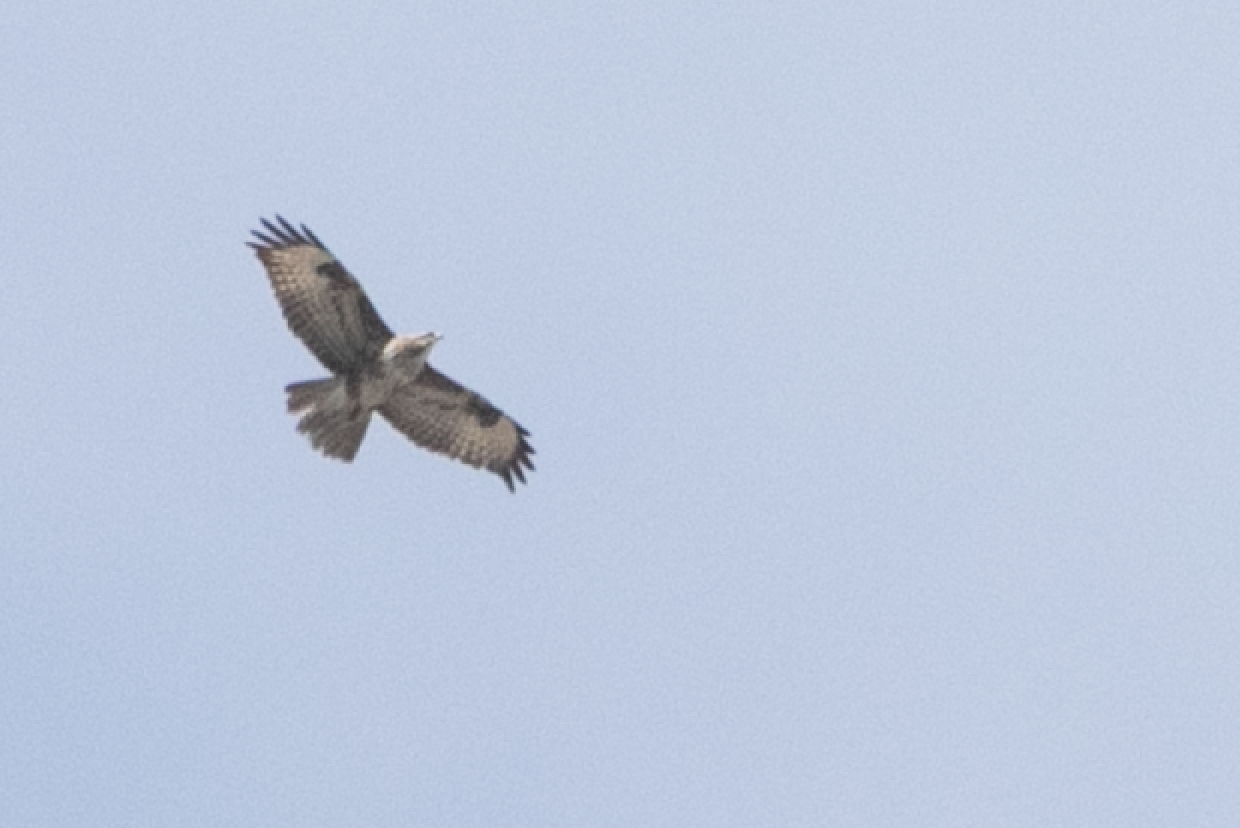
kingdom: Animalia
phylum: Chordata
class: Aves
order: Accipitriformes
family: Accipitridae
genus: Buteo
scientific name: Buteo buteo
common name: Common buzzard
